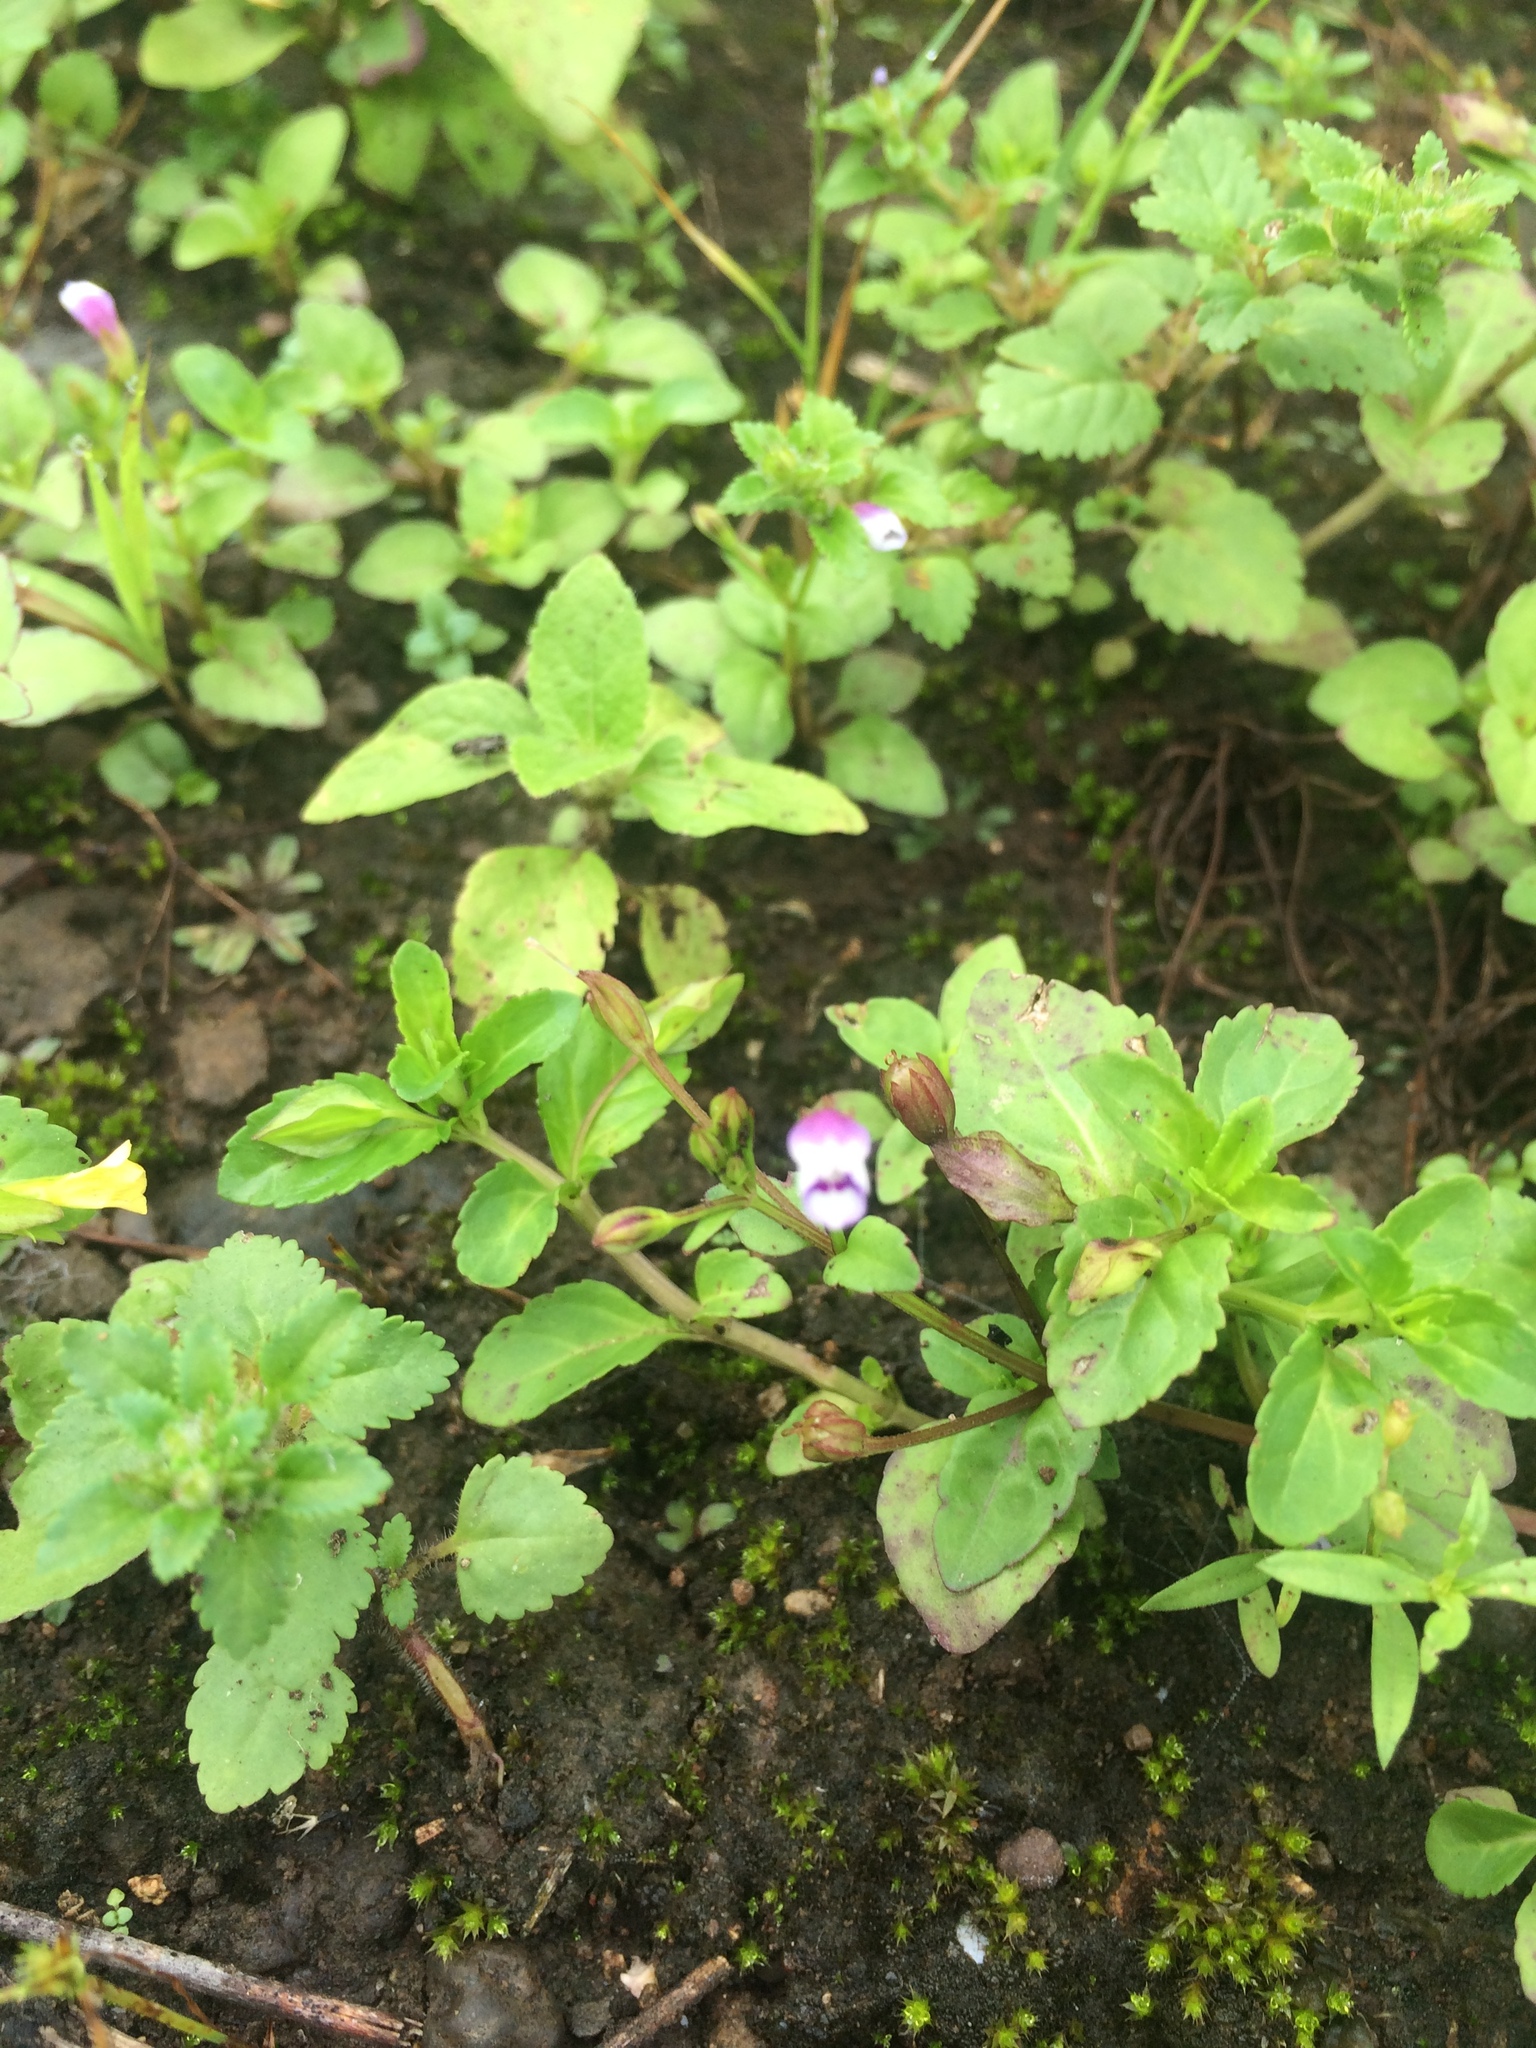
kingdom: Plantae
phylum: Tracheophyta
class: Magnoliopsida
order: Lamiales
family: Linderniaceae
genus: Torenia
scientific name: Torenia crustacea
